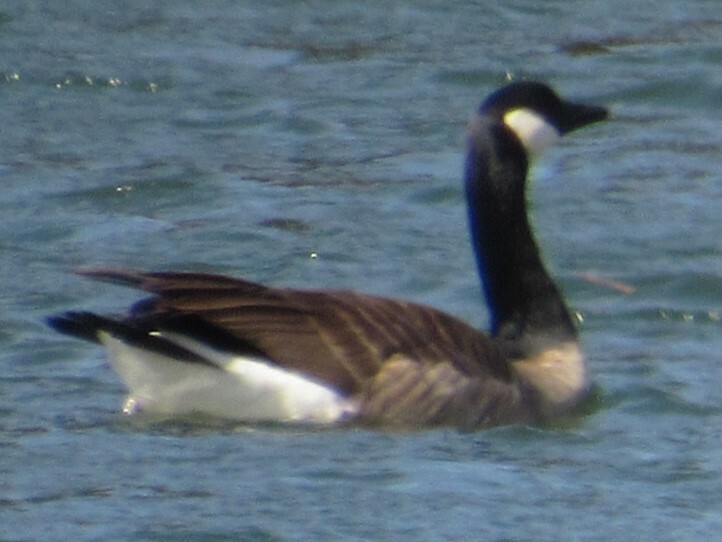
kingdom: Animalia
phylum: Chordata
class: Aves
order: Anseriformes
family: Anatidae
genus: Branta
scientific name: Branta canadensis
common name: Canada goose
